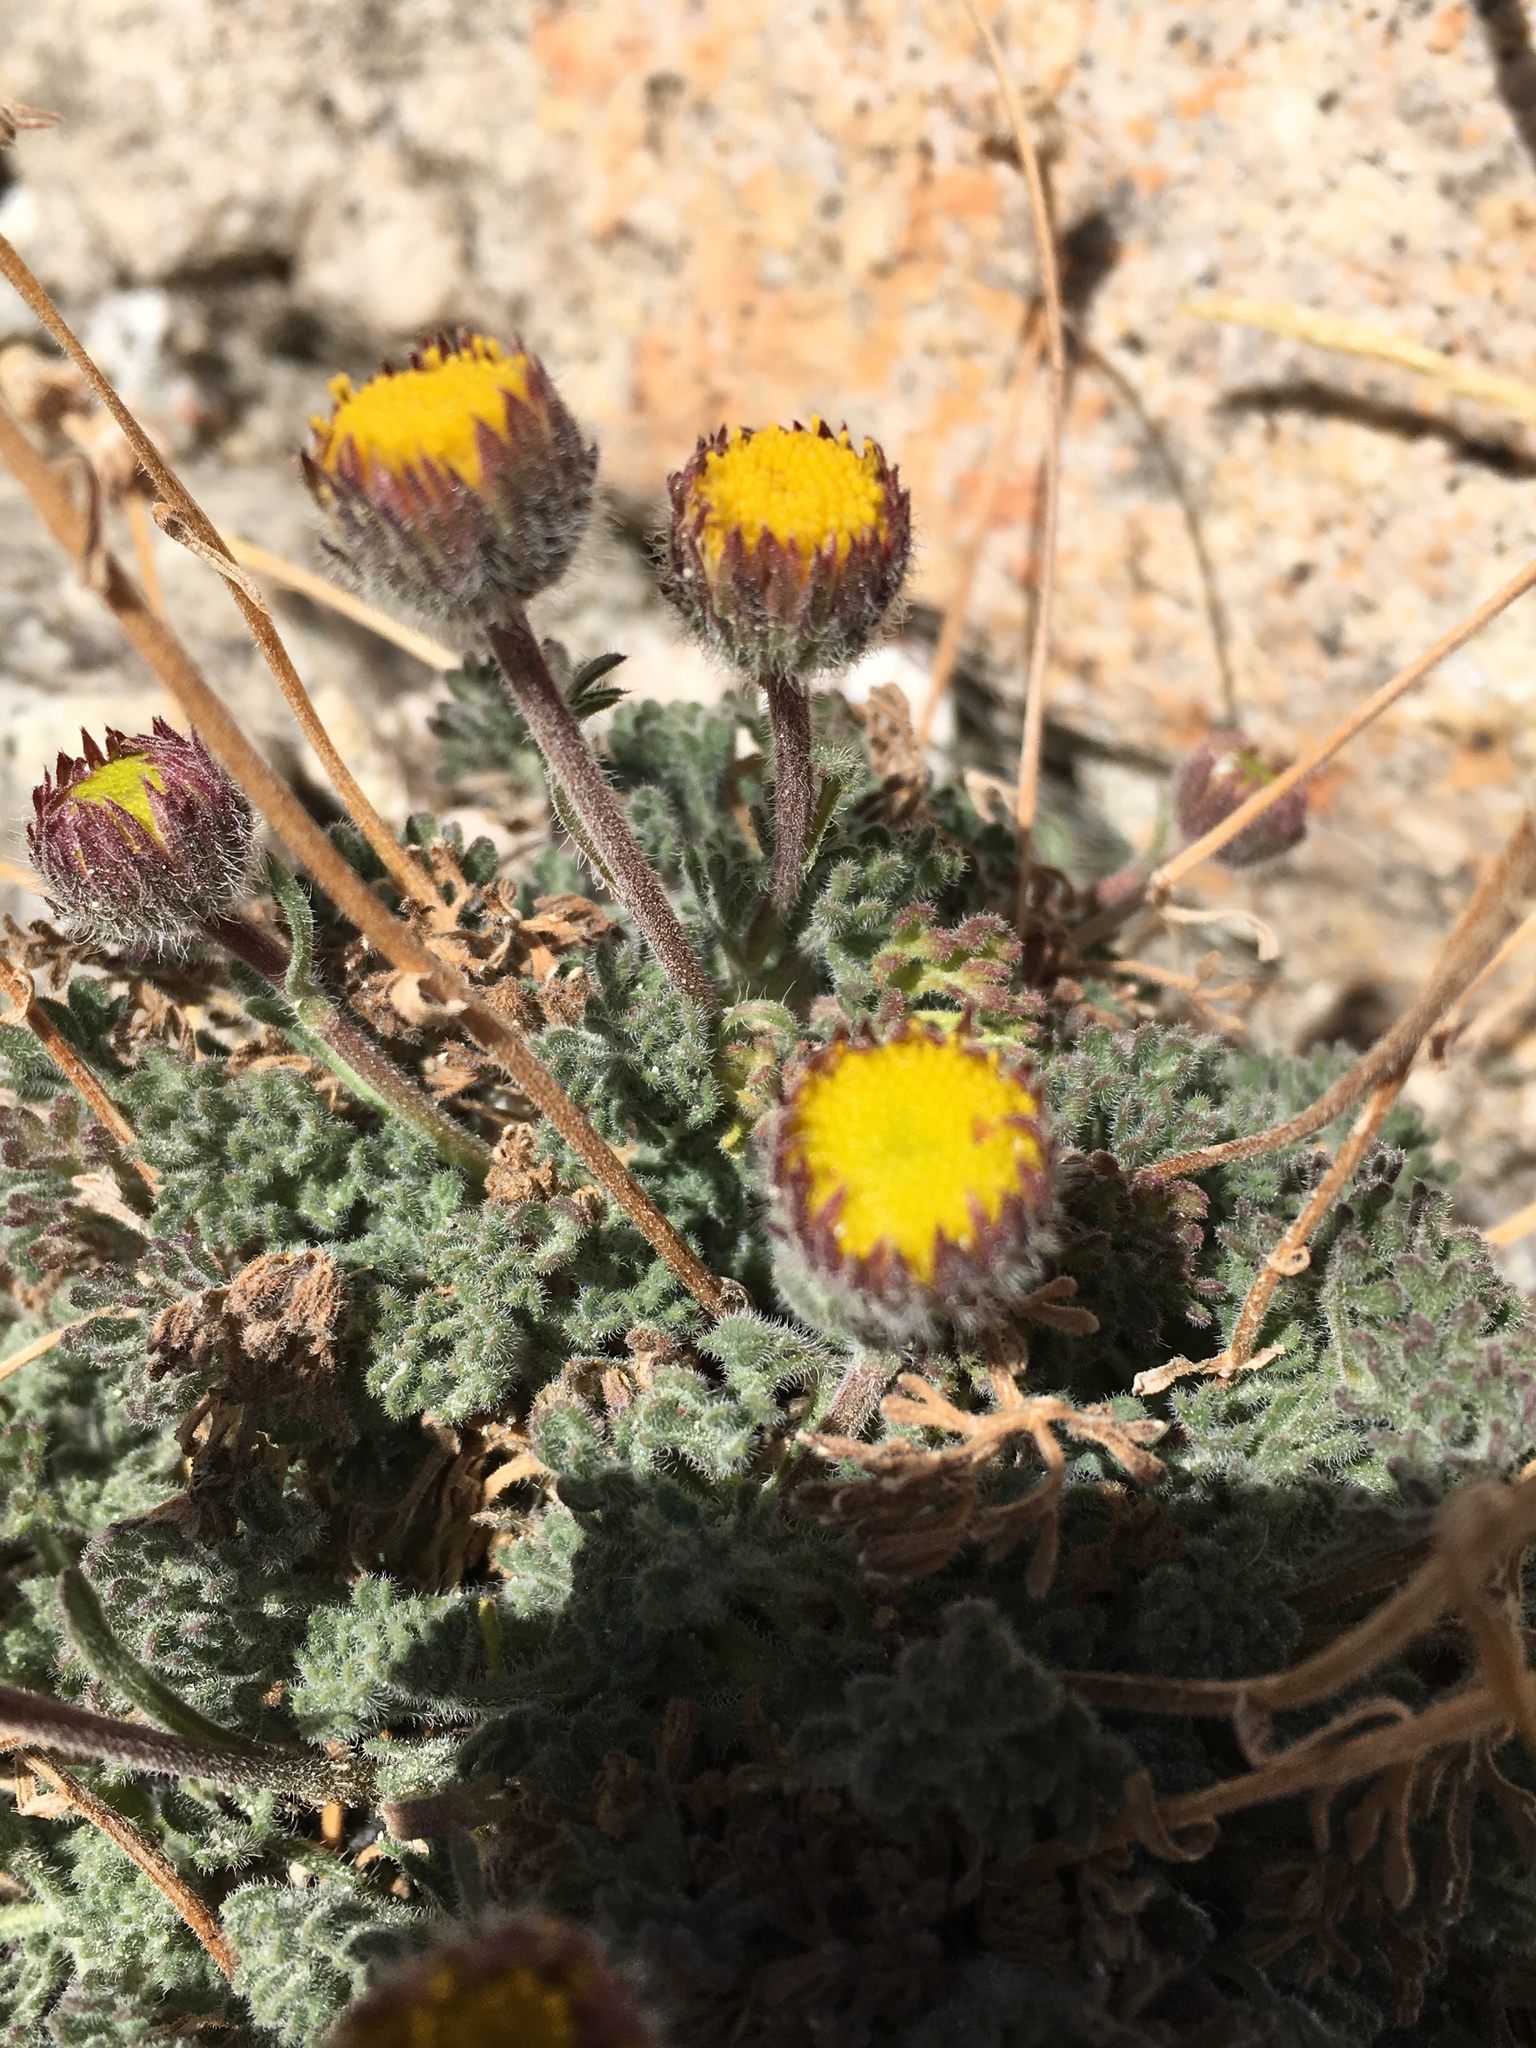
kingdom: Plantae
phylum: Tracheophyta
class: Magnoliopsida
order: Asterales
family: Asteraceae
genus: Erigeron
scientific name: Erigeron compositus
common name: Dwarf mountain fleabane
